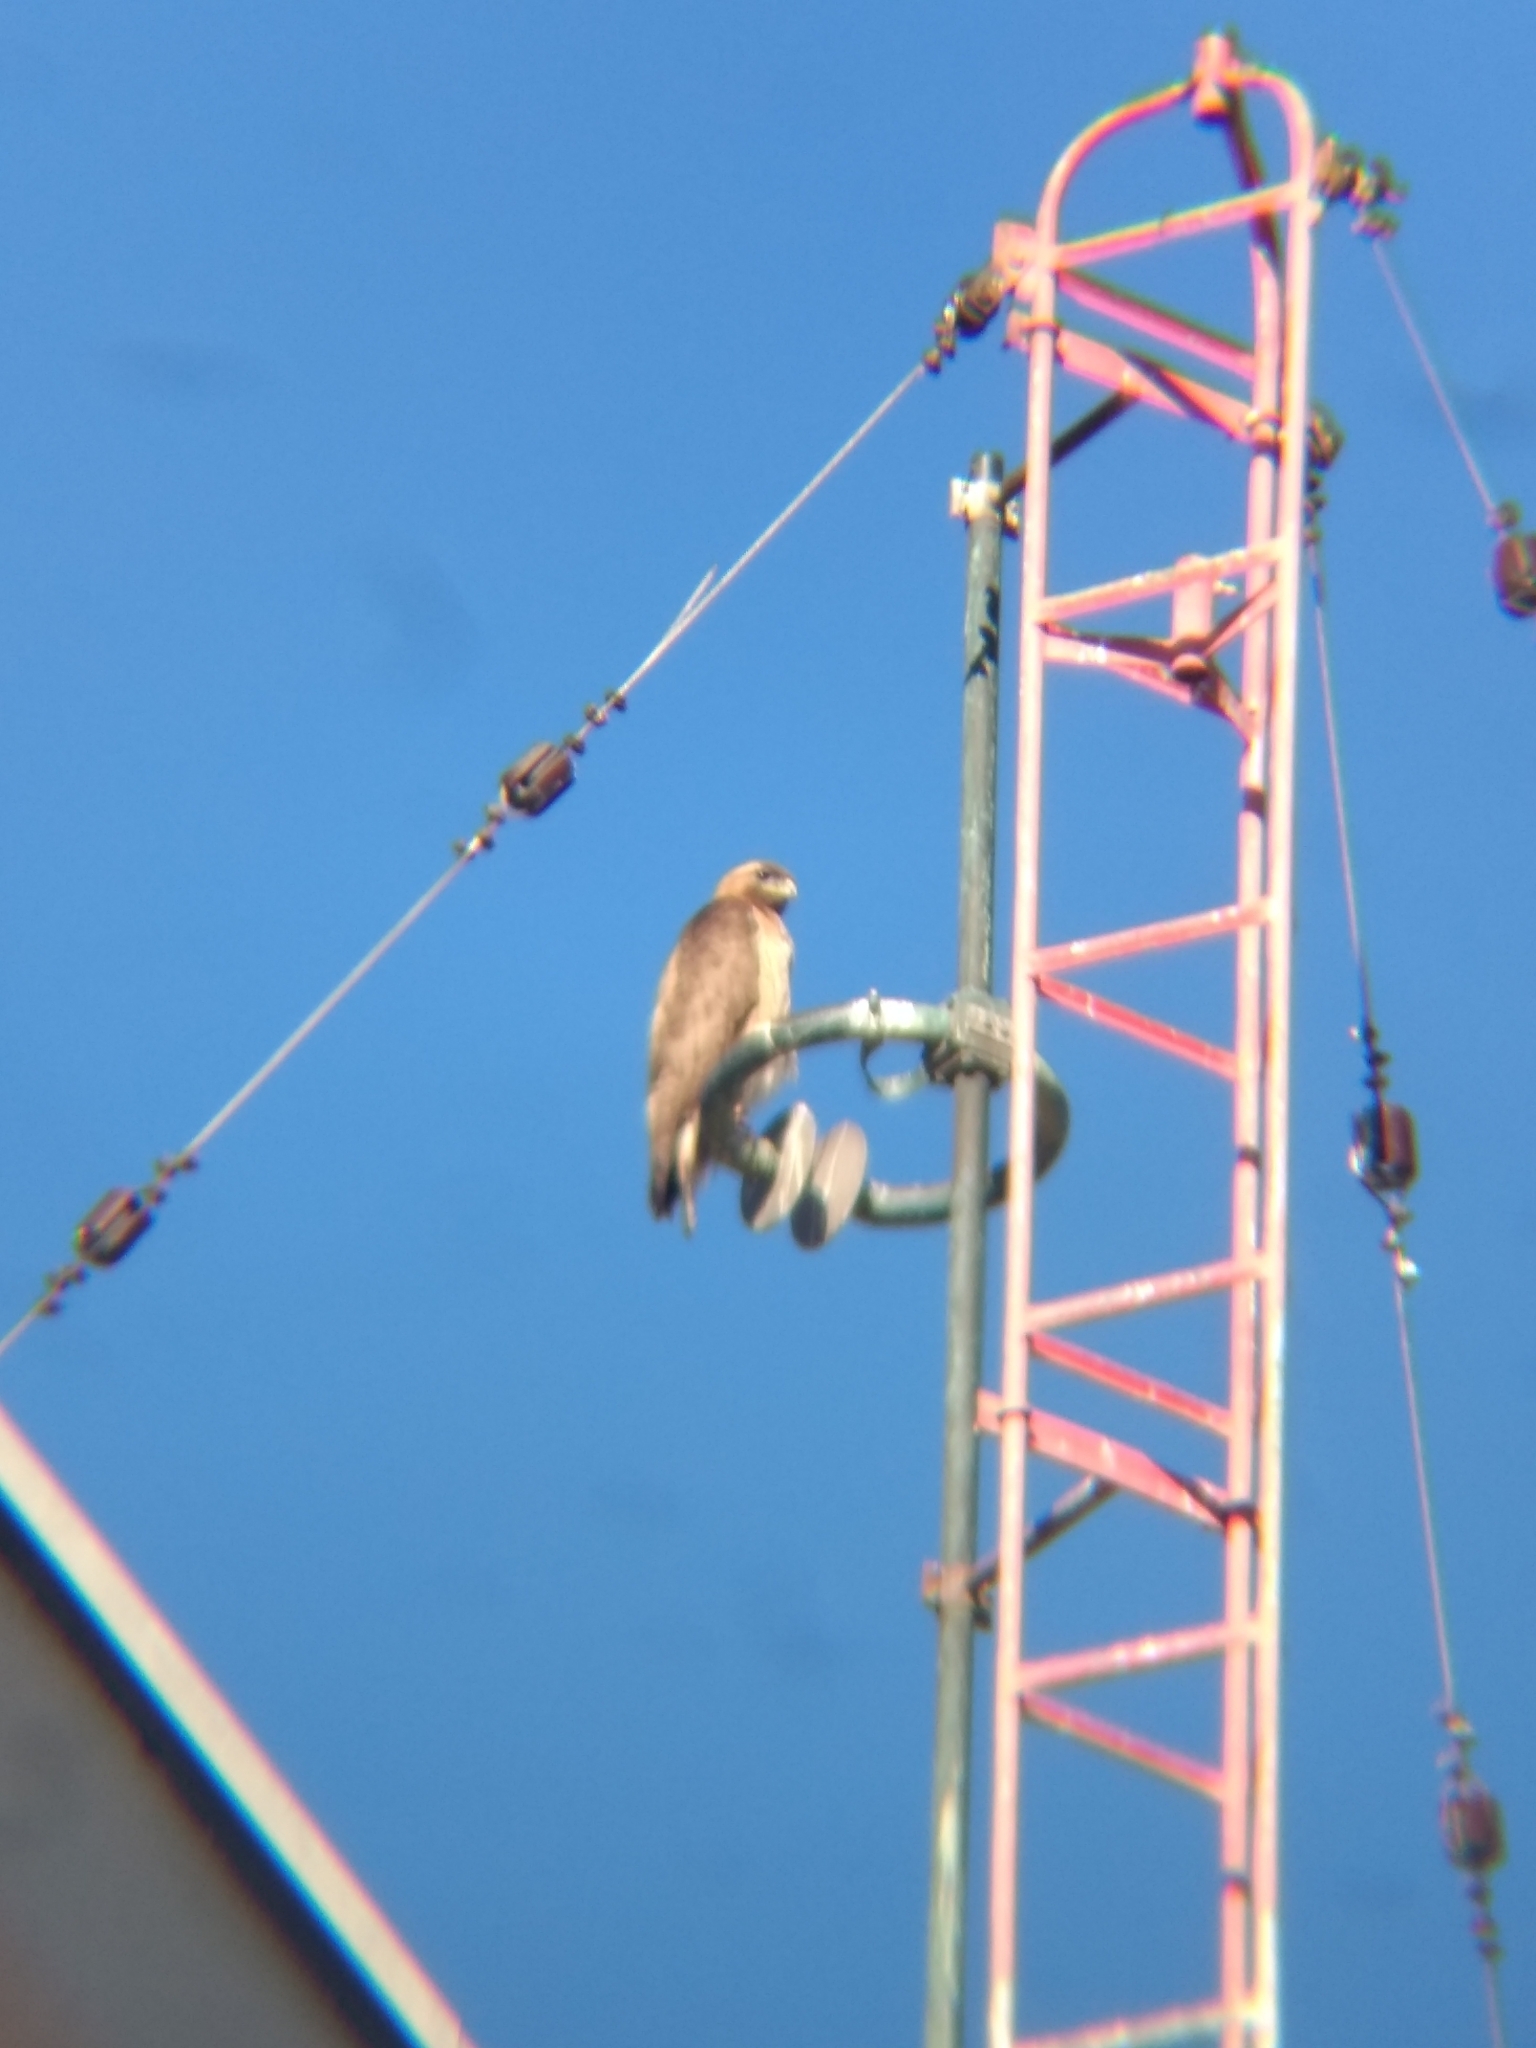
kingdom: Animalia
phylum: Chordata
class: Aves
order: Accipitriformes
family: Accipitridae
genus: Buteo
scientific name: Buteo jamaicensis
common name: Red-tailed hawk
